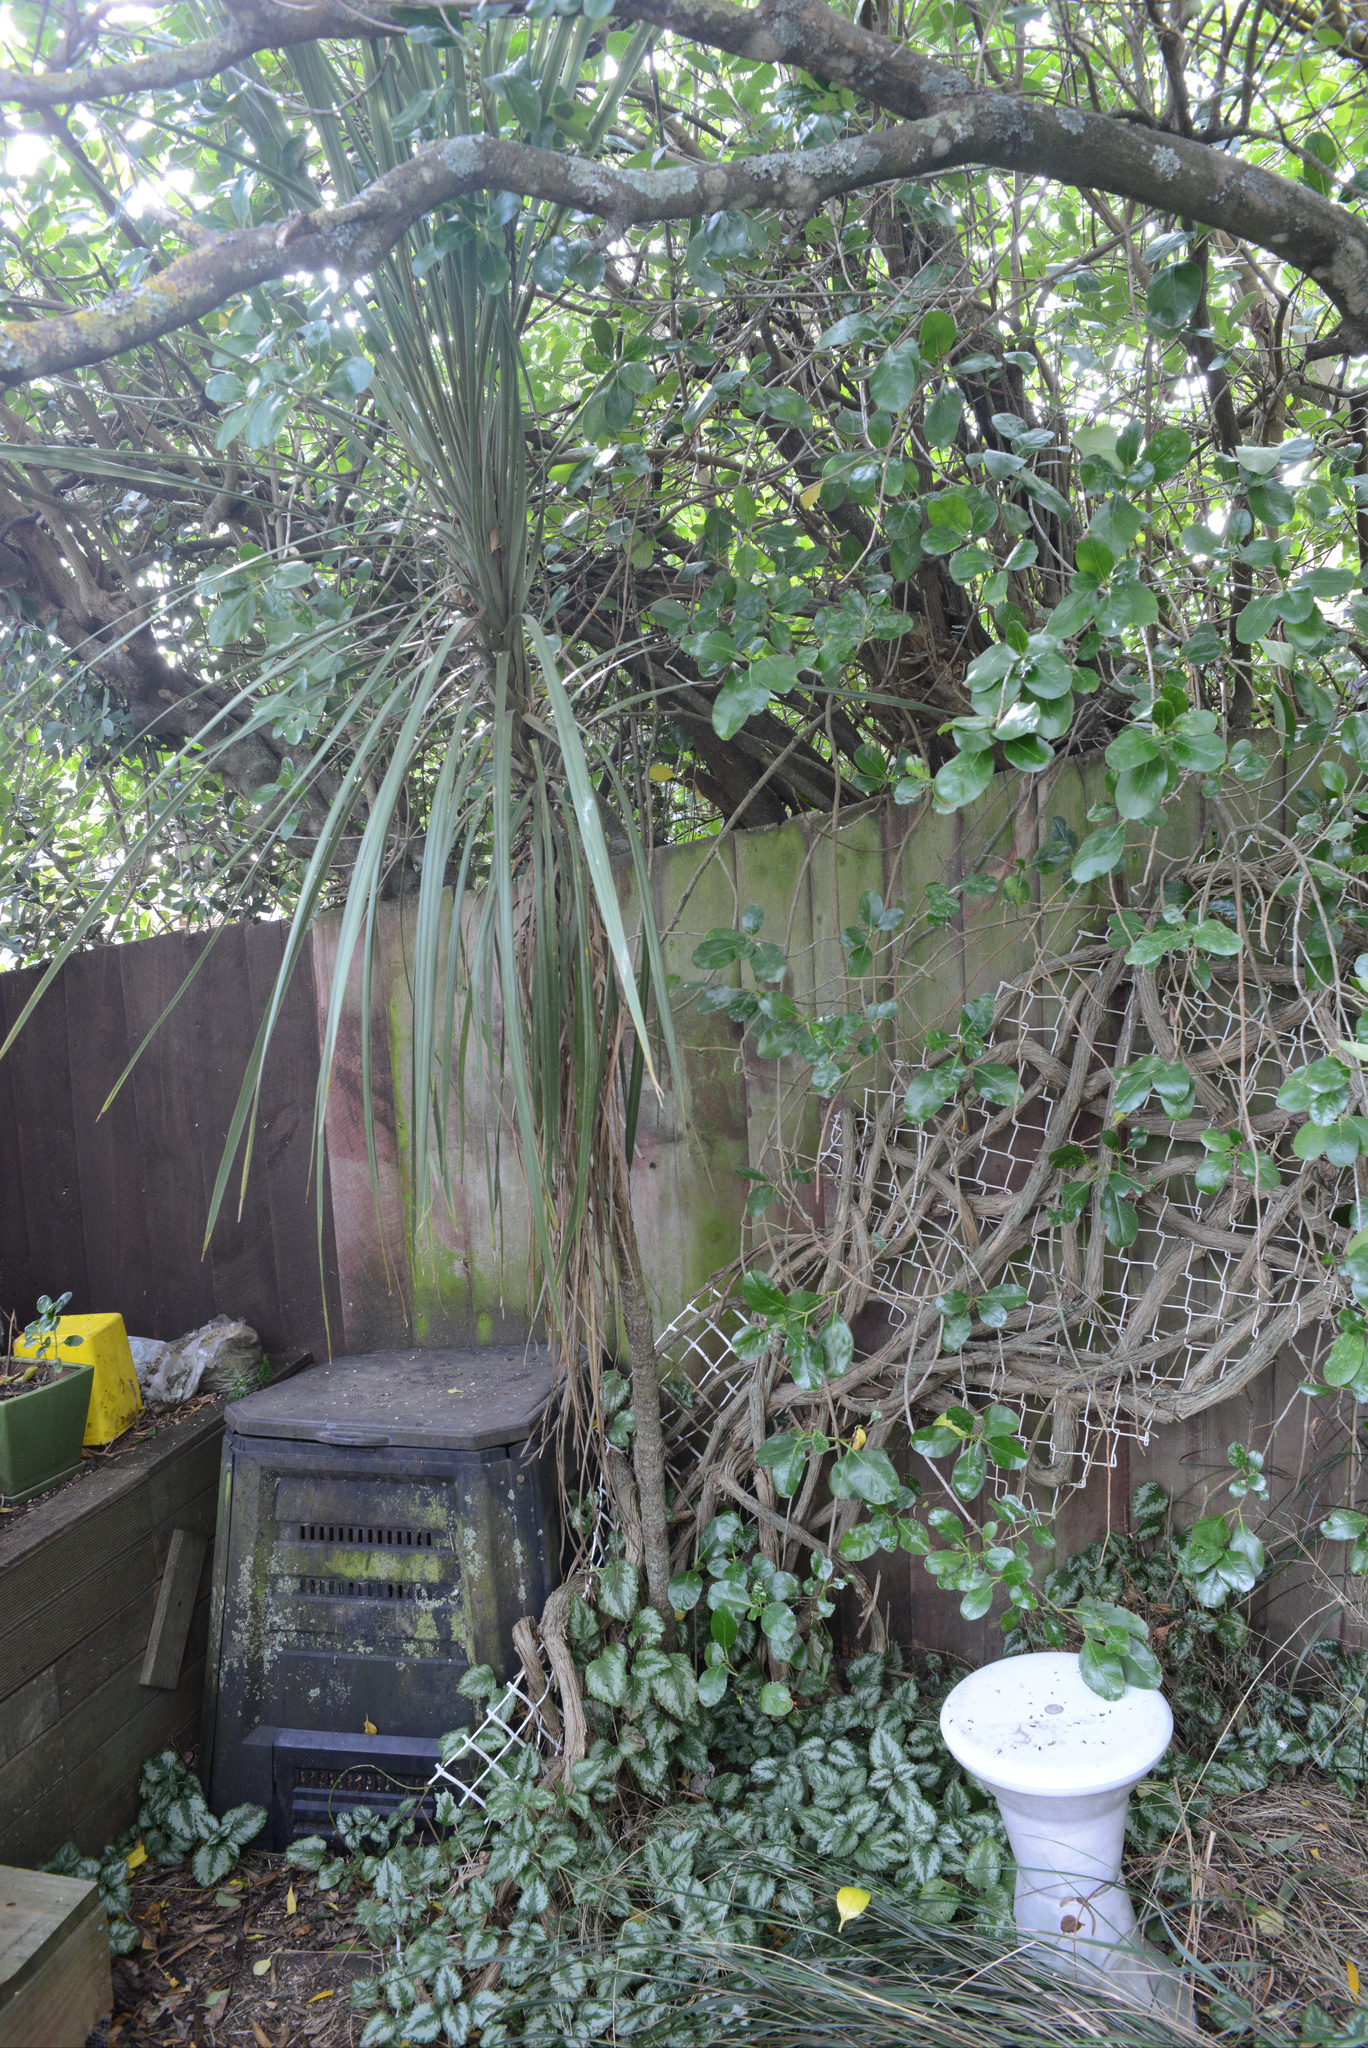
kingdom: Plantae
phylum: Tracheophyta
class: Liliopsida
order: Asparagales
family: Asparagaceae
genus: Cordyline
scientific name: Cordyline australis
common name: Cabbage-palm
